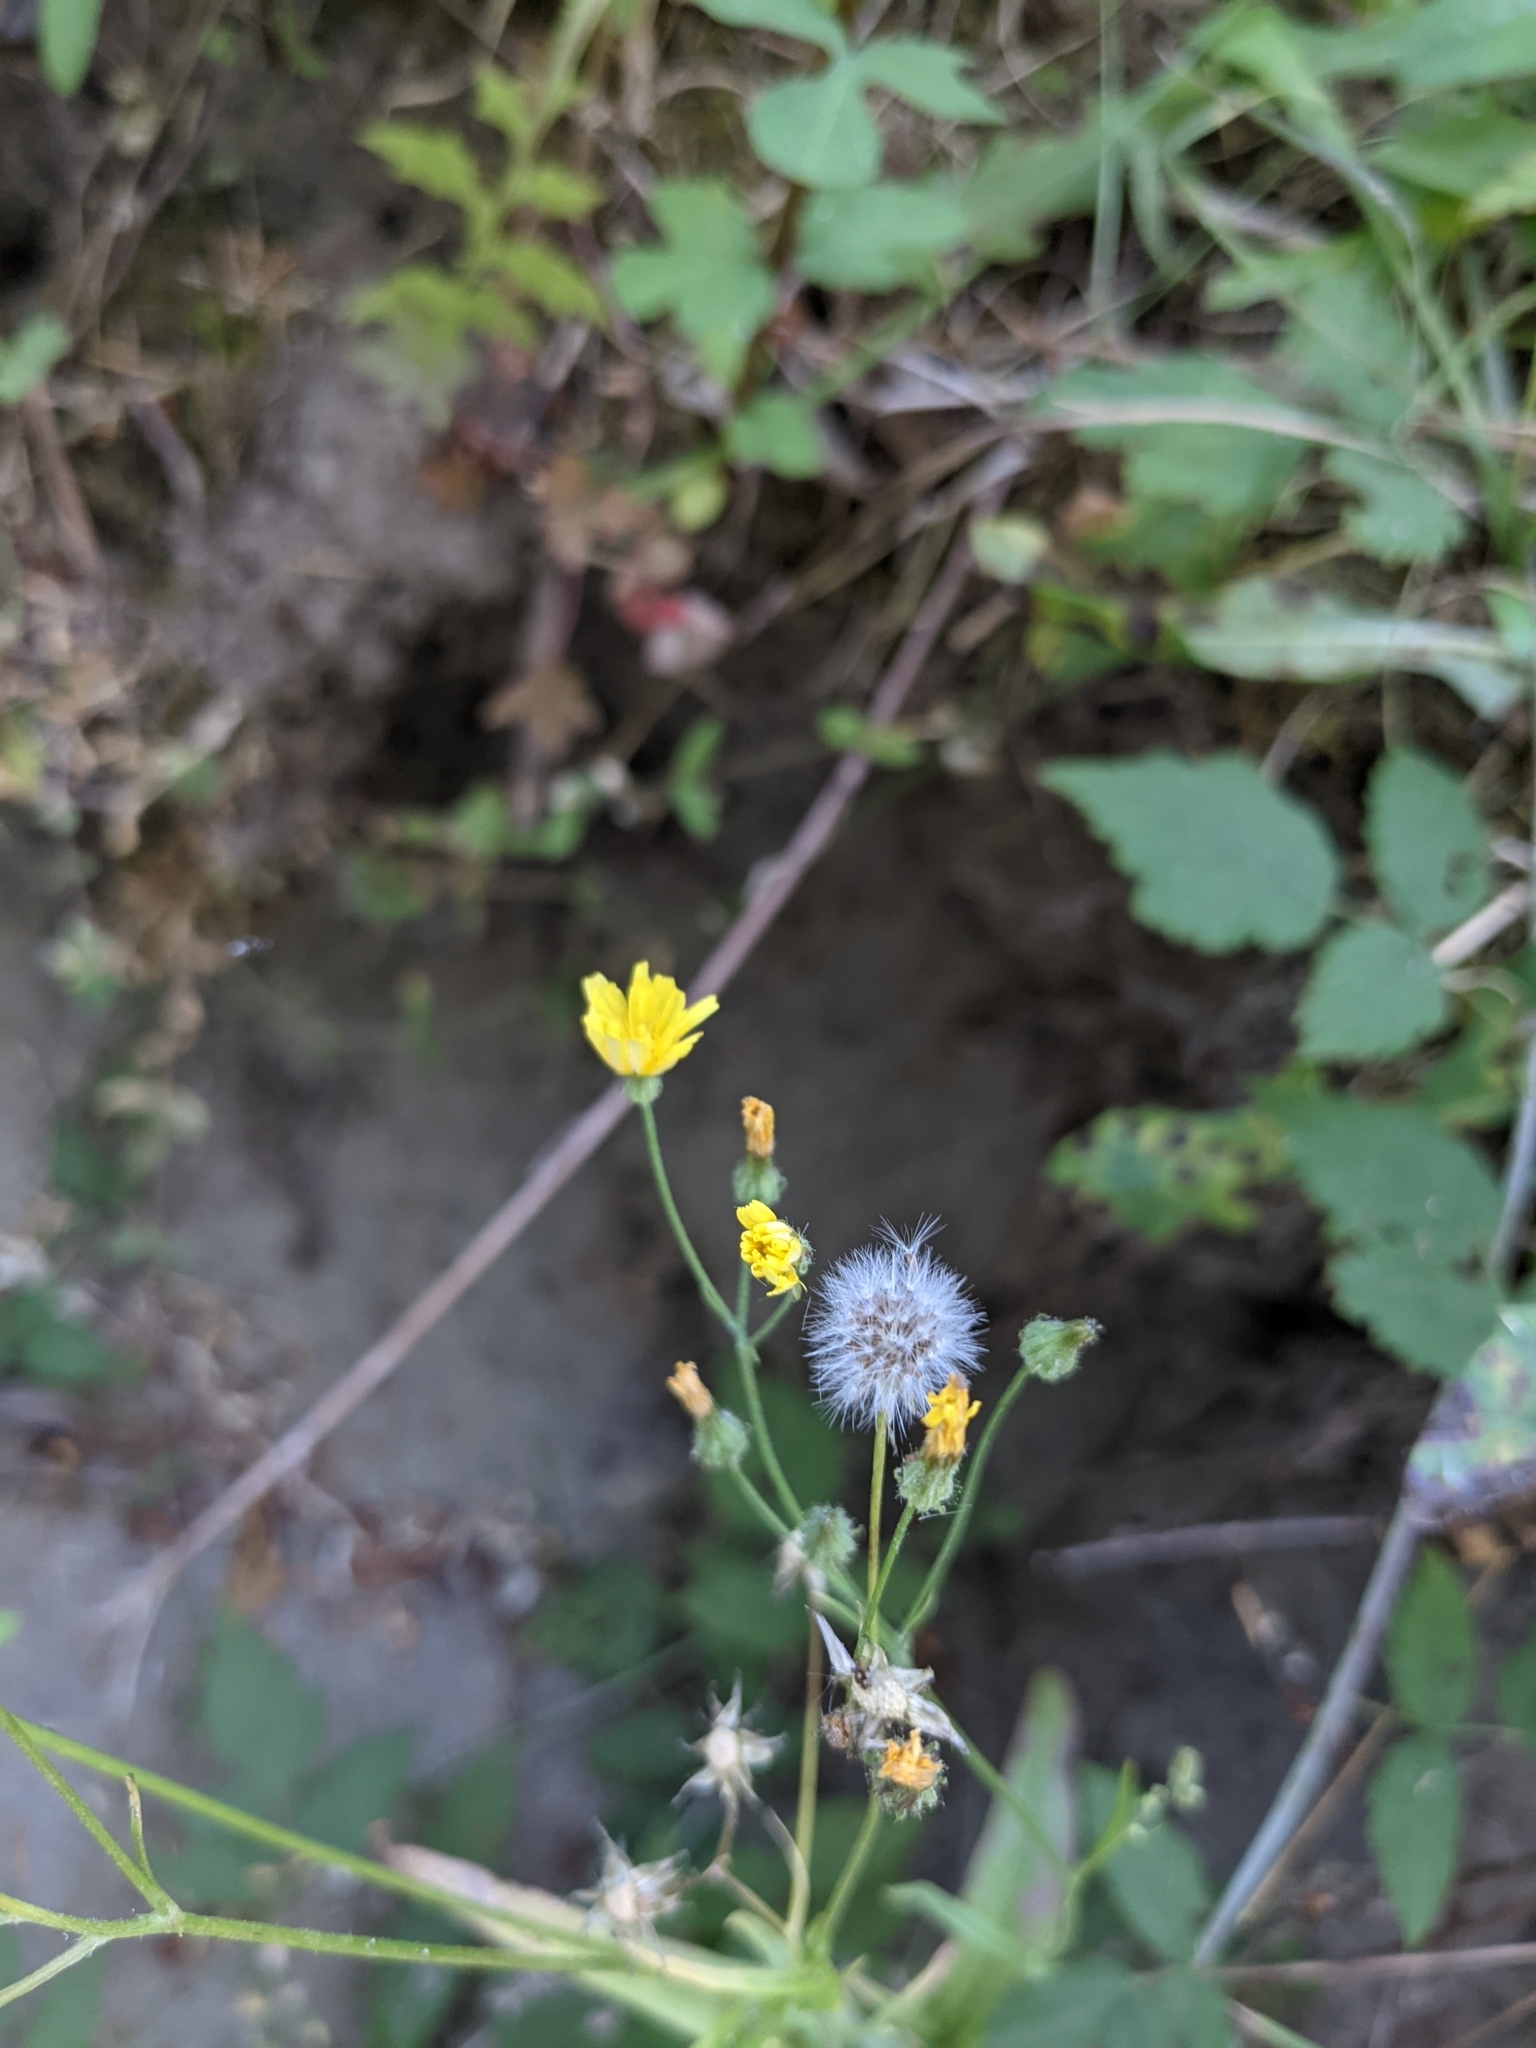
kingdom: Plantae
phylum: Tracheophyta
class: Magnoliopsida
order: Asterales
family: Asteraceae
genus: Lapsana
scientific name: Lapsana communis
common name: Nipplewort
